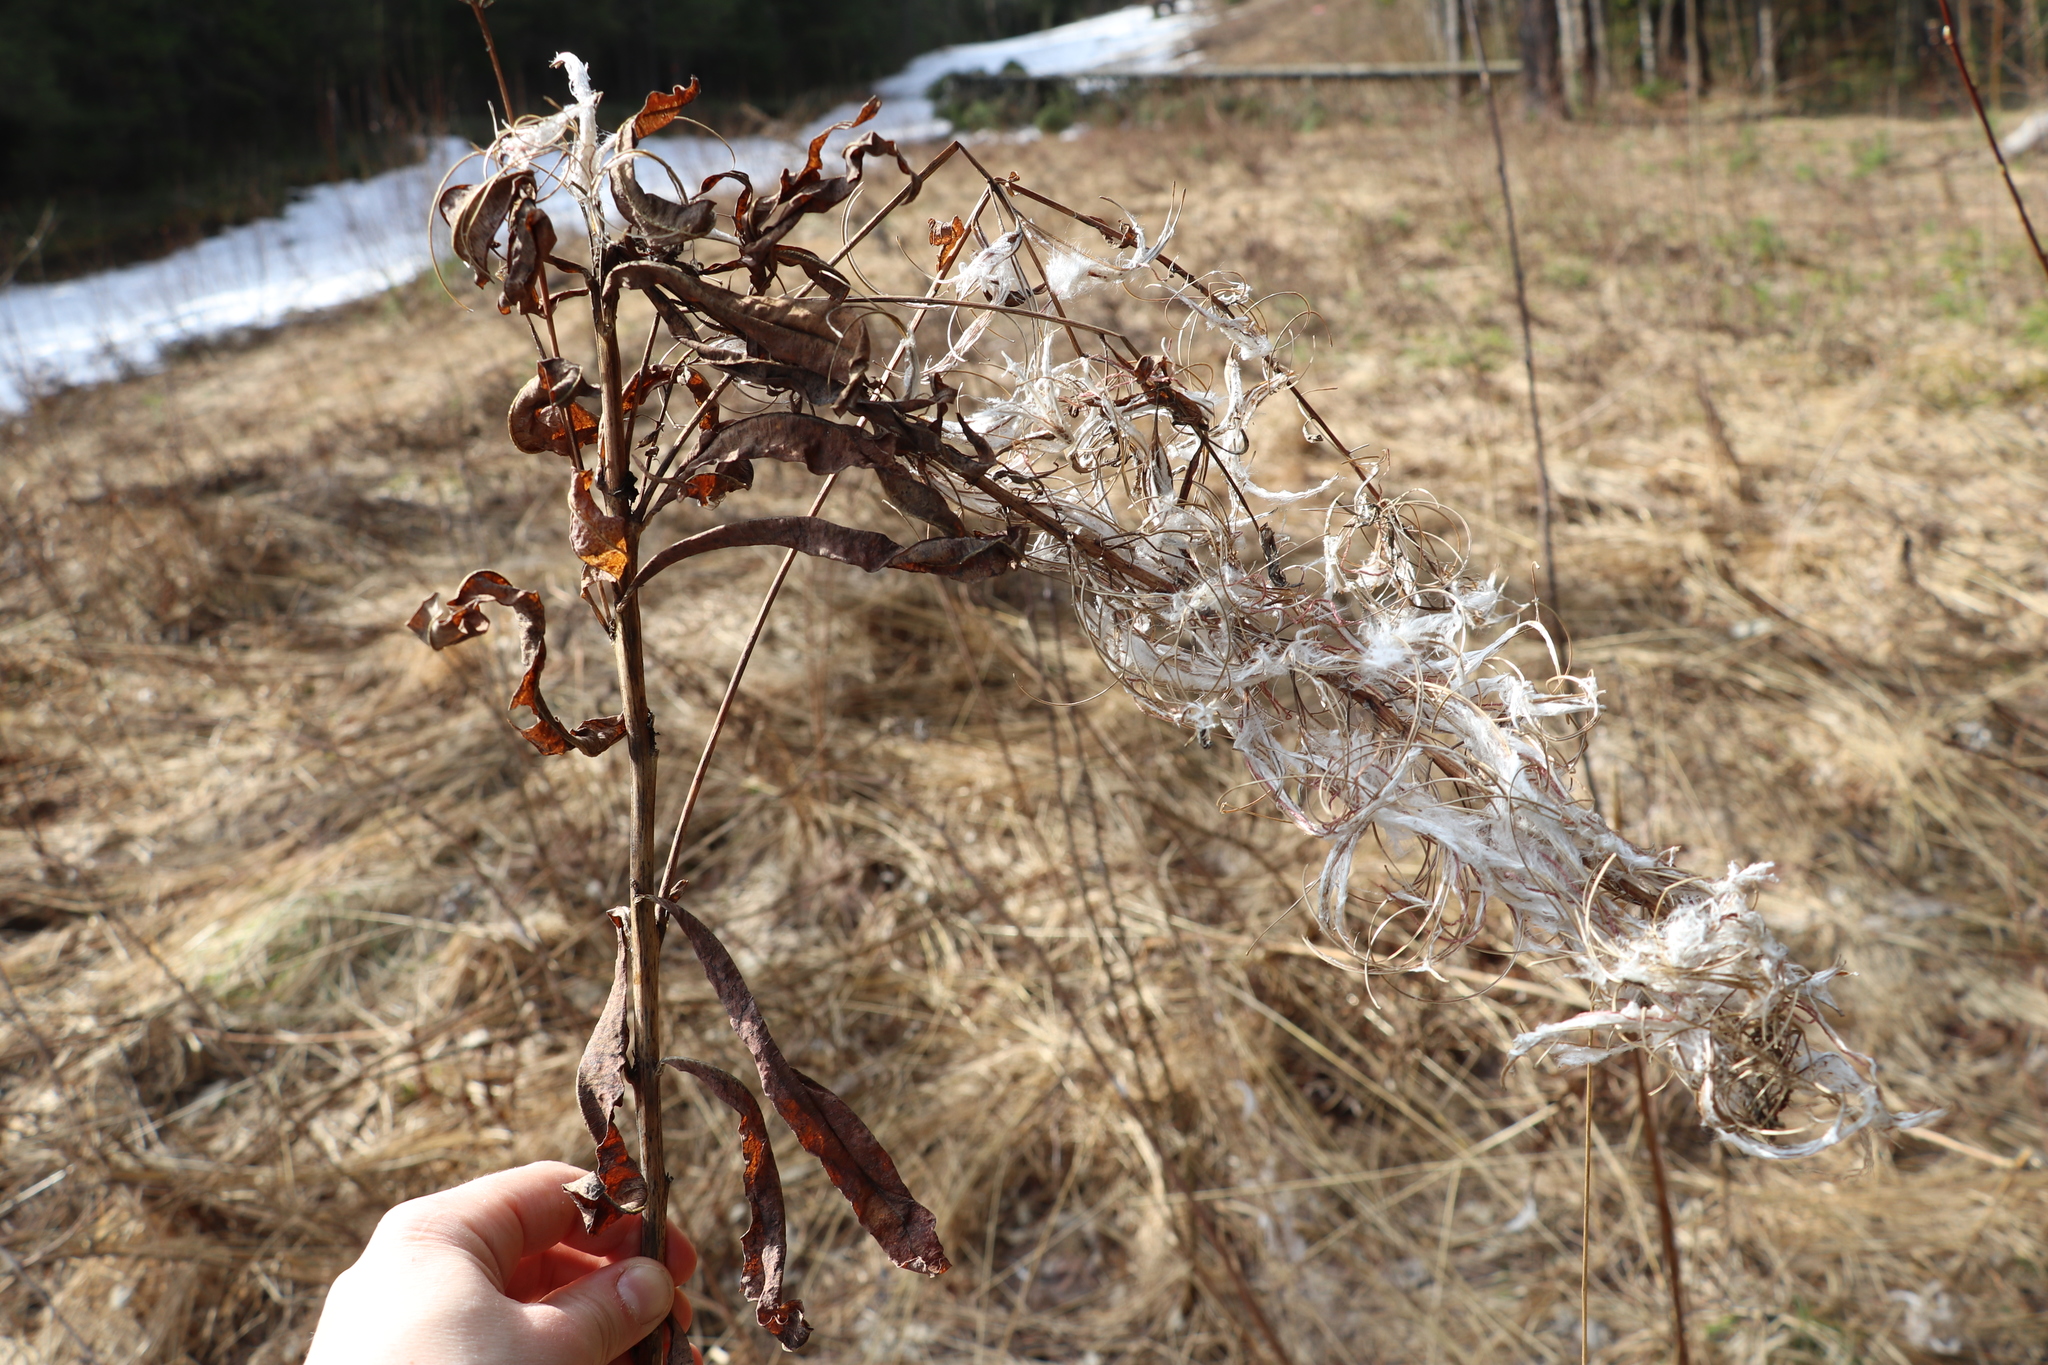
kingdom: Plantae
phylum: Tracheophyta
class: Magnoliopsida
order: Myrtales
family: Onagraceae
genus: Chamaenerion
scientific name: Chamaenerion angustifolium
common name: Fireweed
